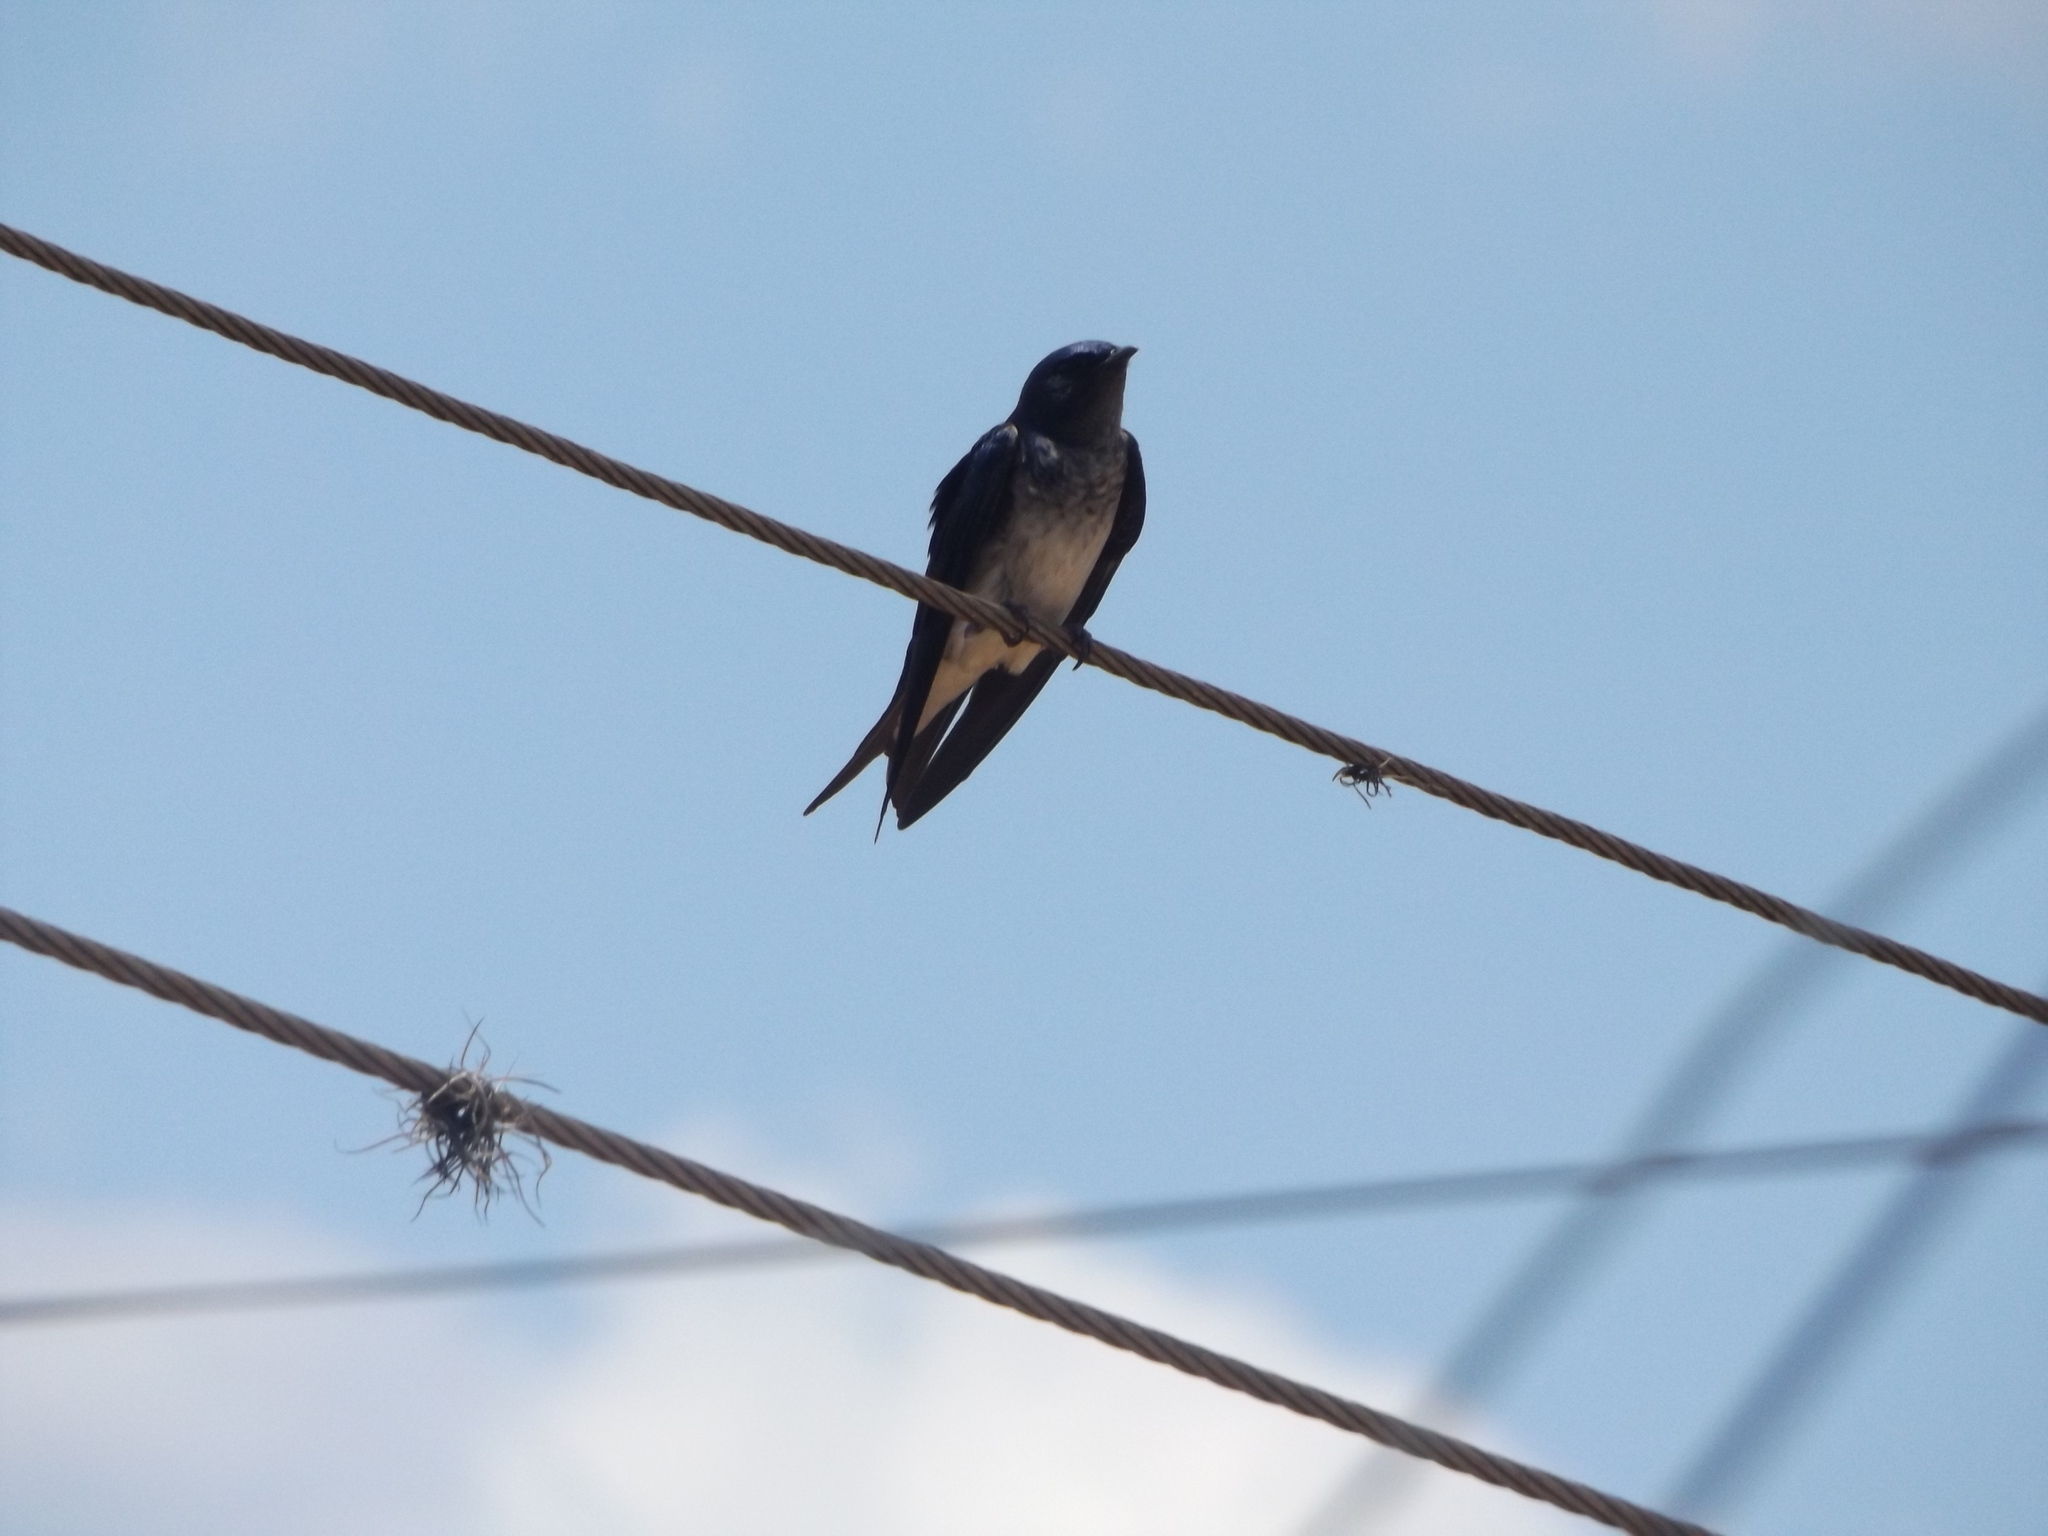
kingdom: Animalia
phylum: Chordata
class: Aves
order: Passeriformes
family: Hirundinidae
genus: Progne
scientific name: Progne chalybea
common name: Grey-breasted martin
